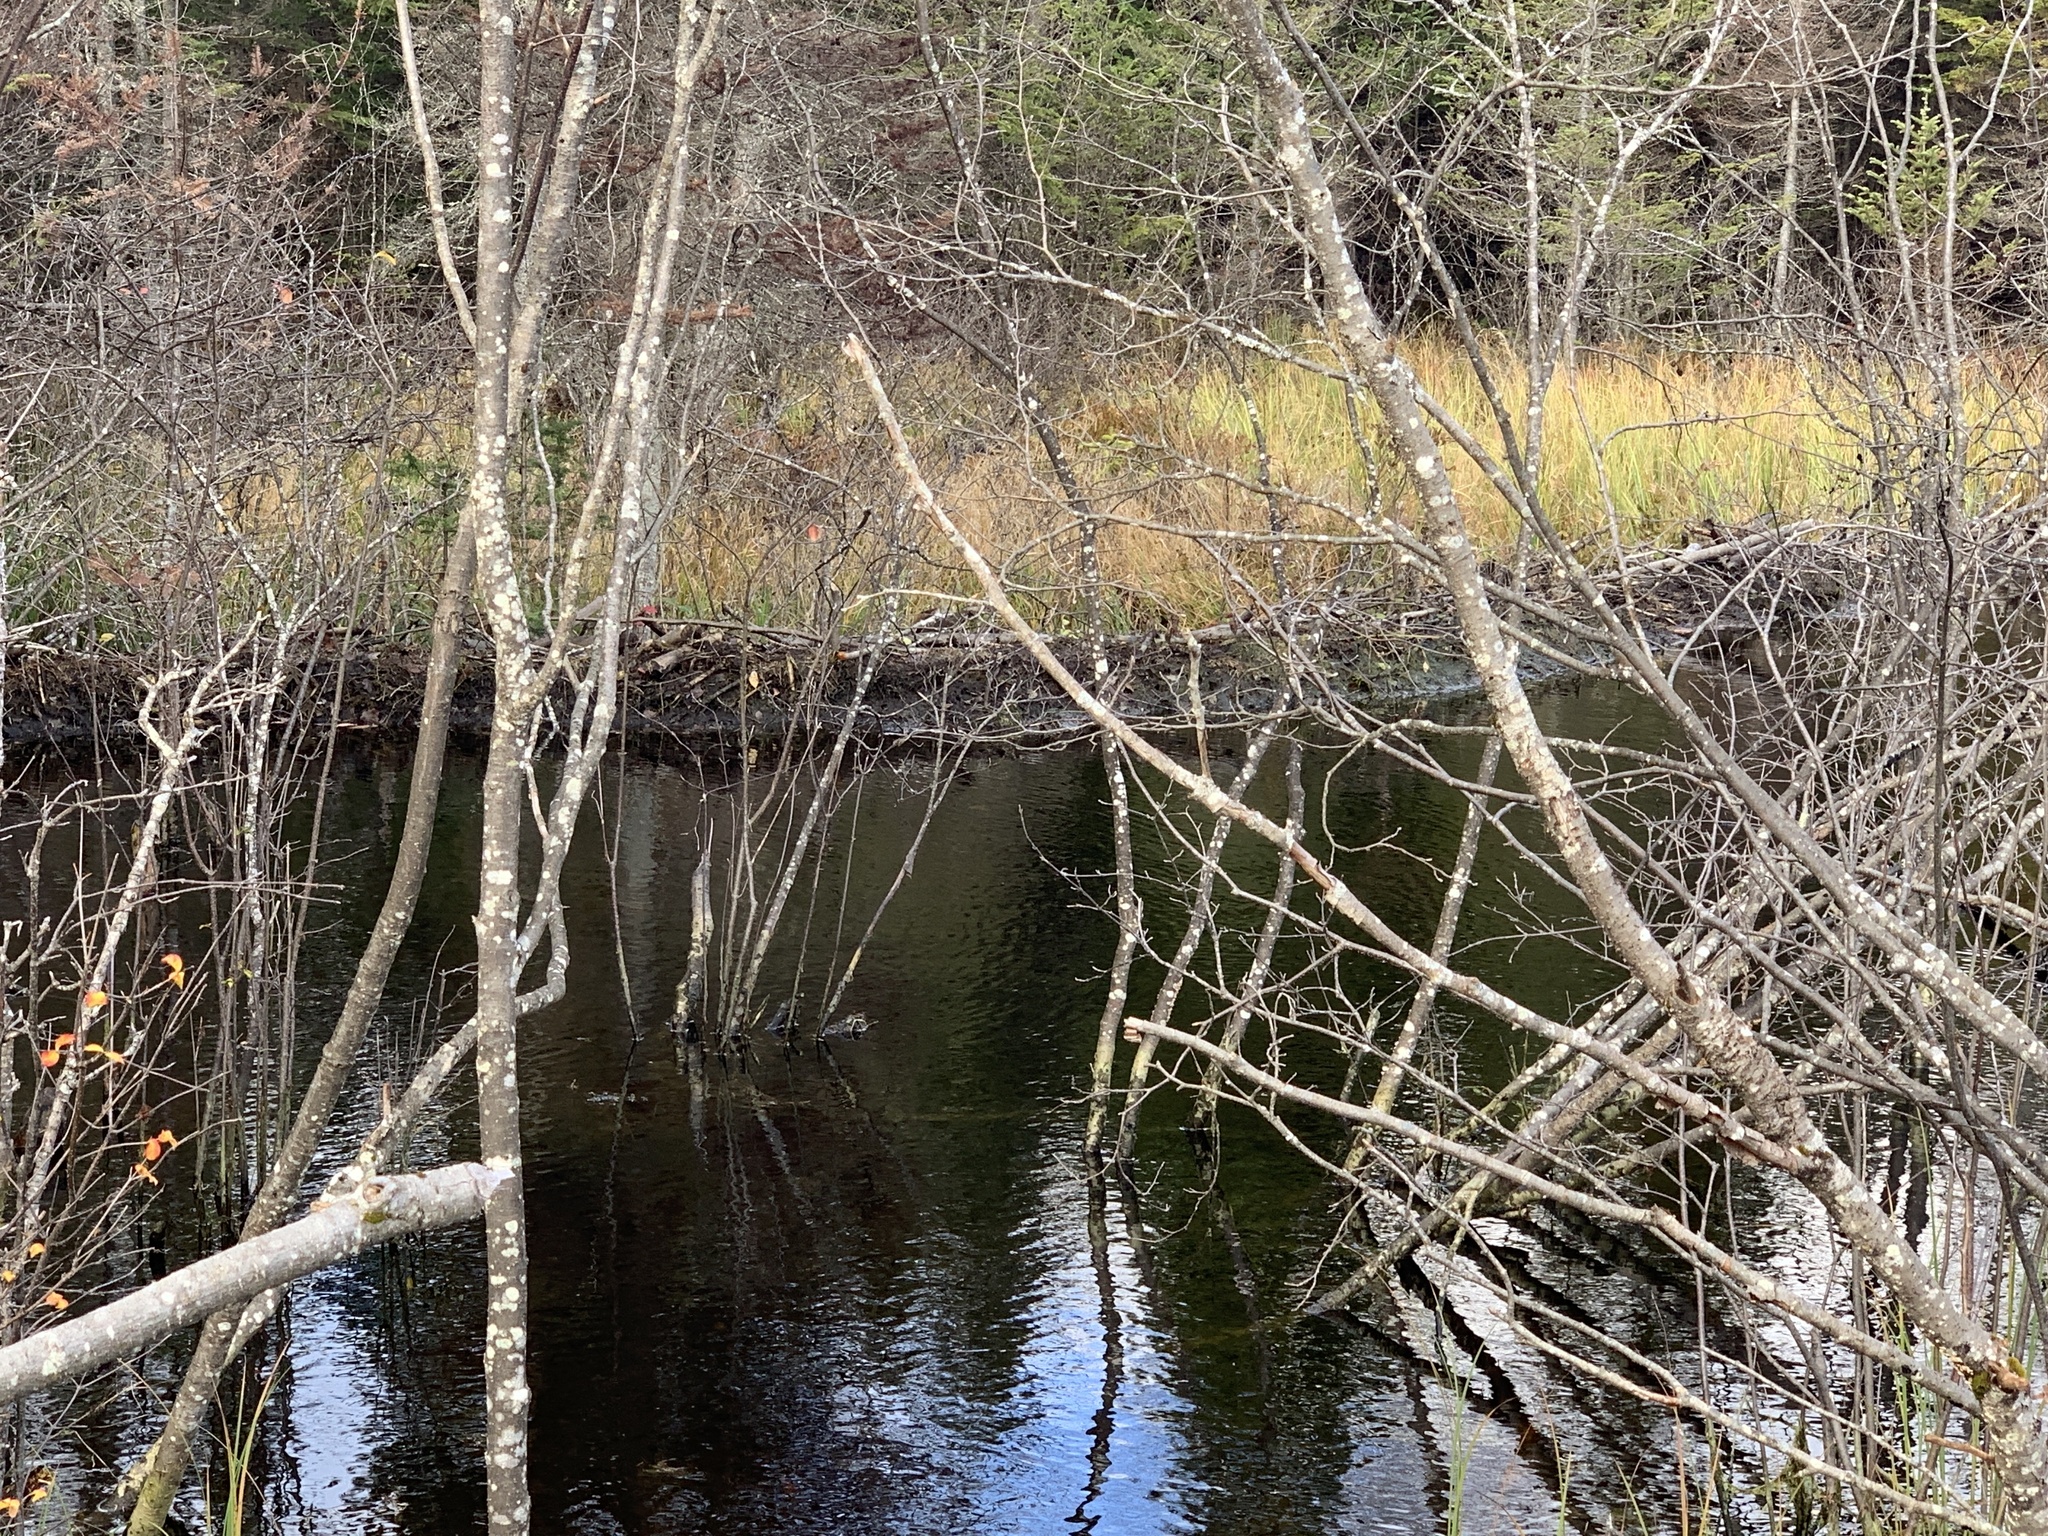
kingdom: Animalia
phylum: Chordata
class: Mammalia
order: Rodentia
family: Castoridae
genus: Castor
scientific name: Castor canadensis
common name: American beaver
